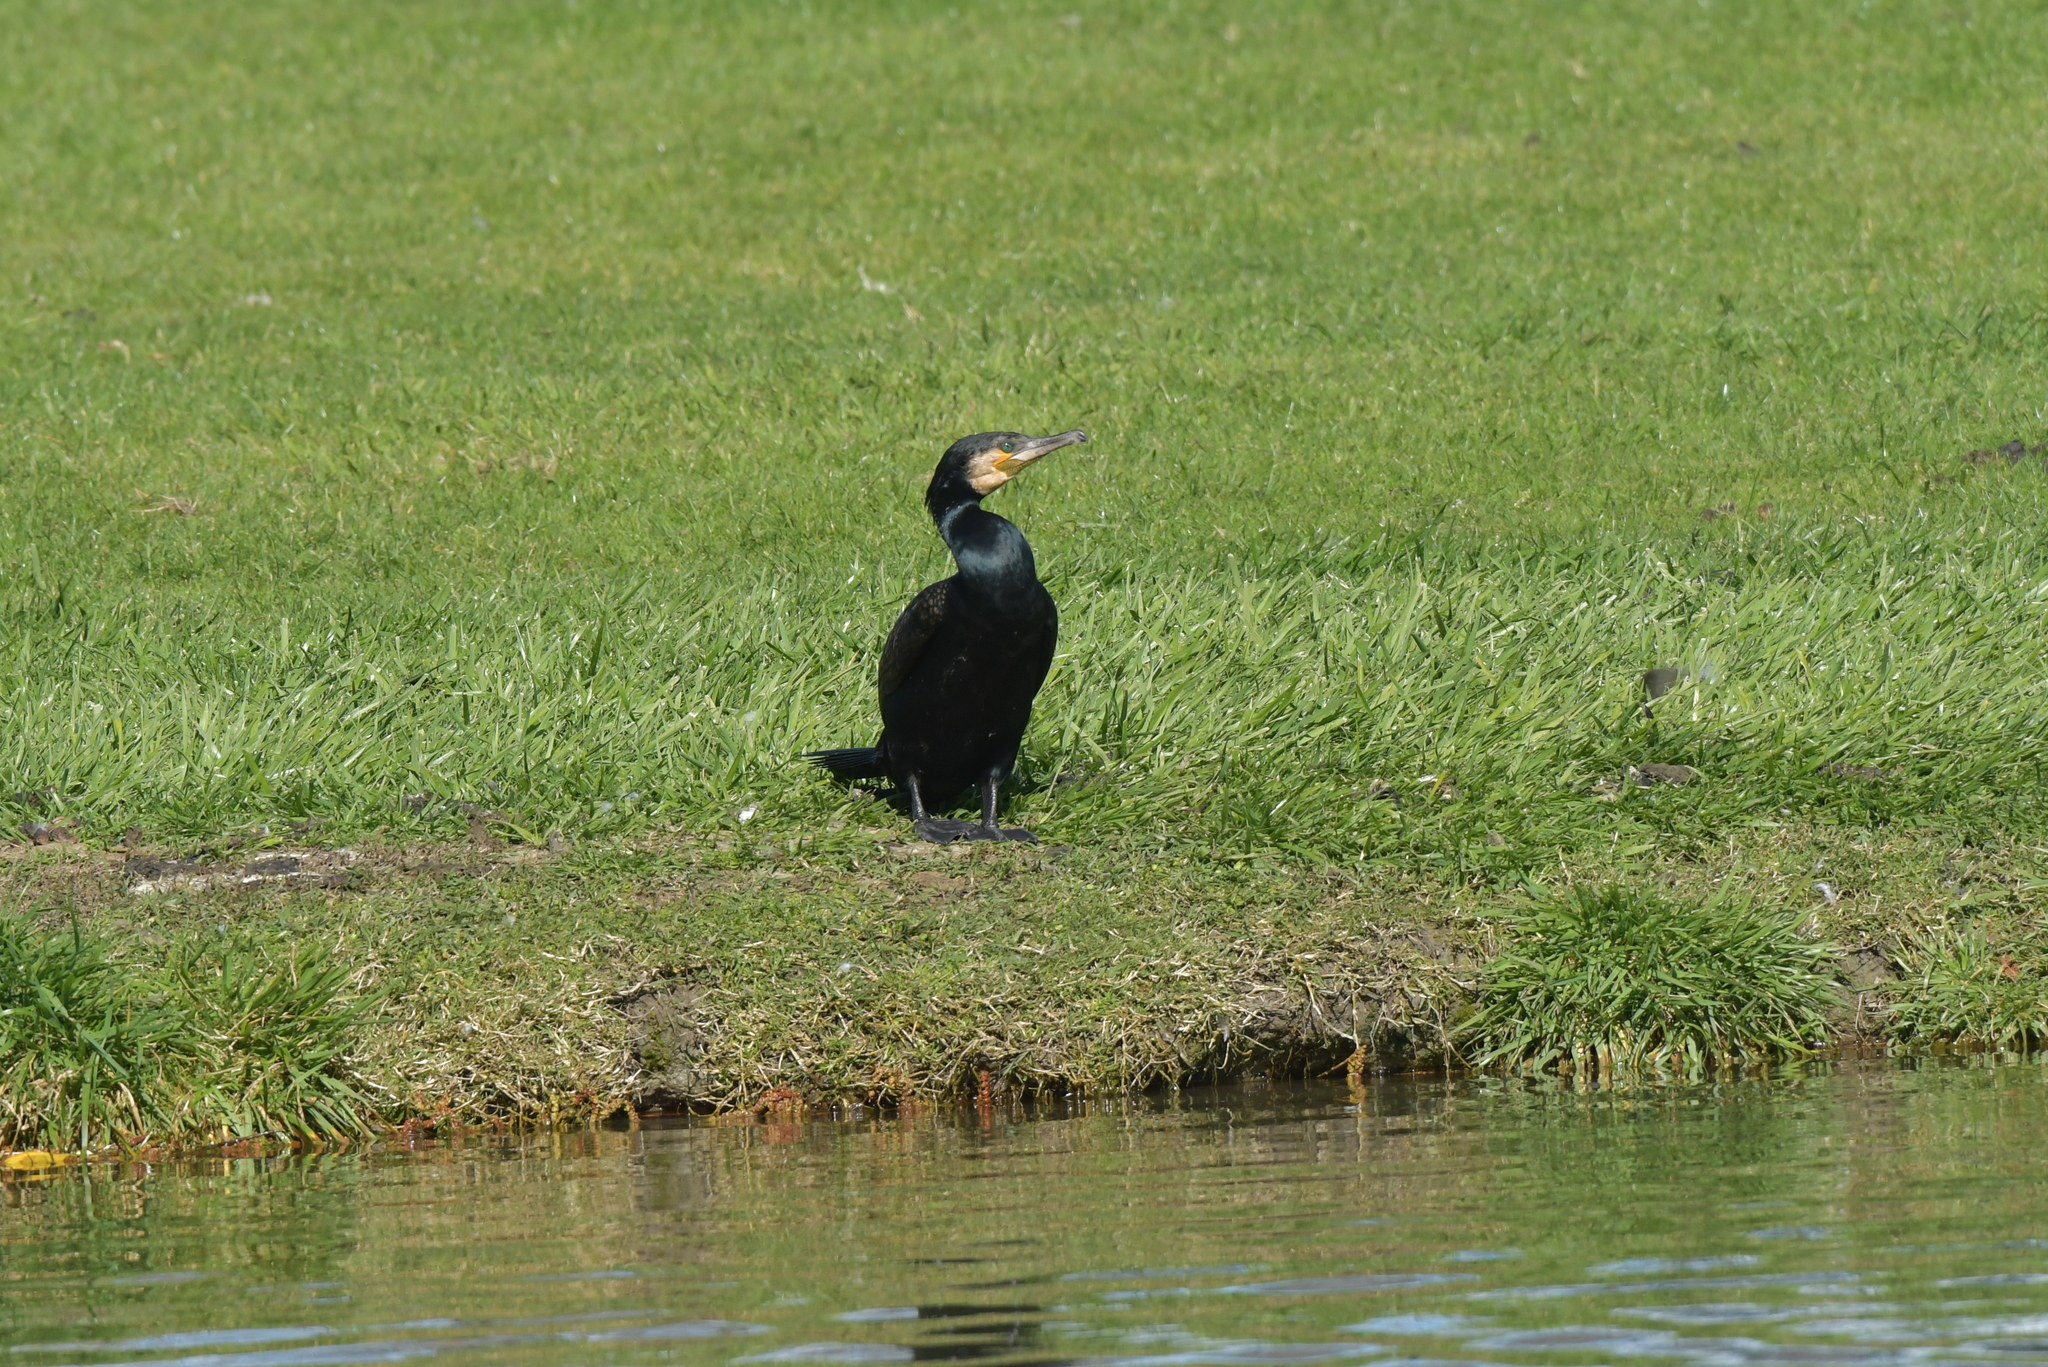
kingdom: Animalia
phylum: Chordata
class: Aves
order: Suliformes
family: Phalacrocoracidae
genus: Phalacrocorax
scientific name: Phalacrocorax carbo
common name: Great cormorant
